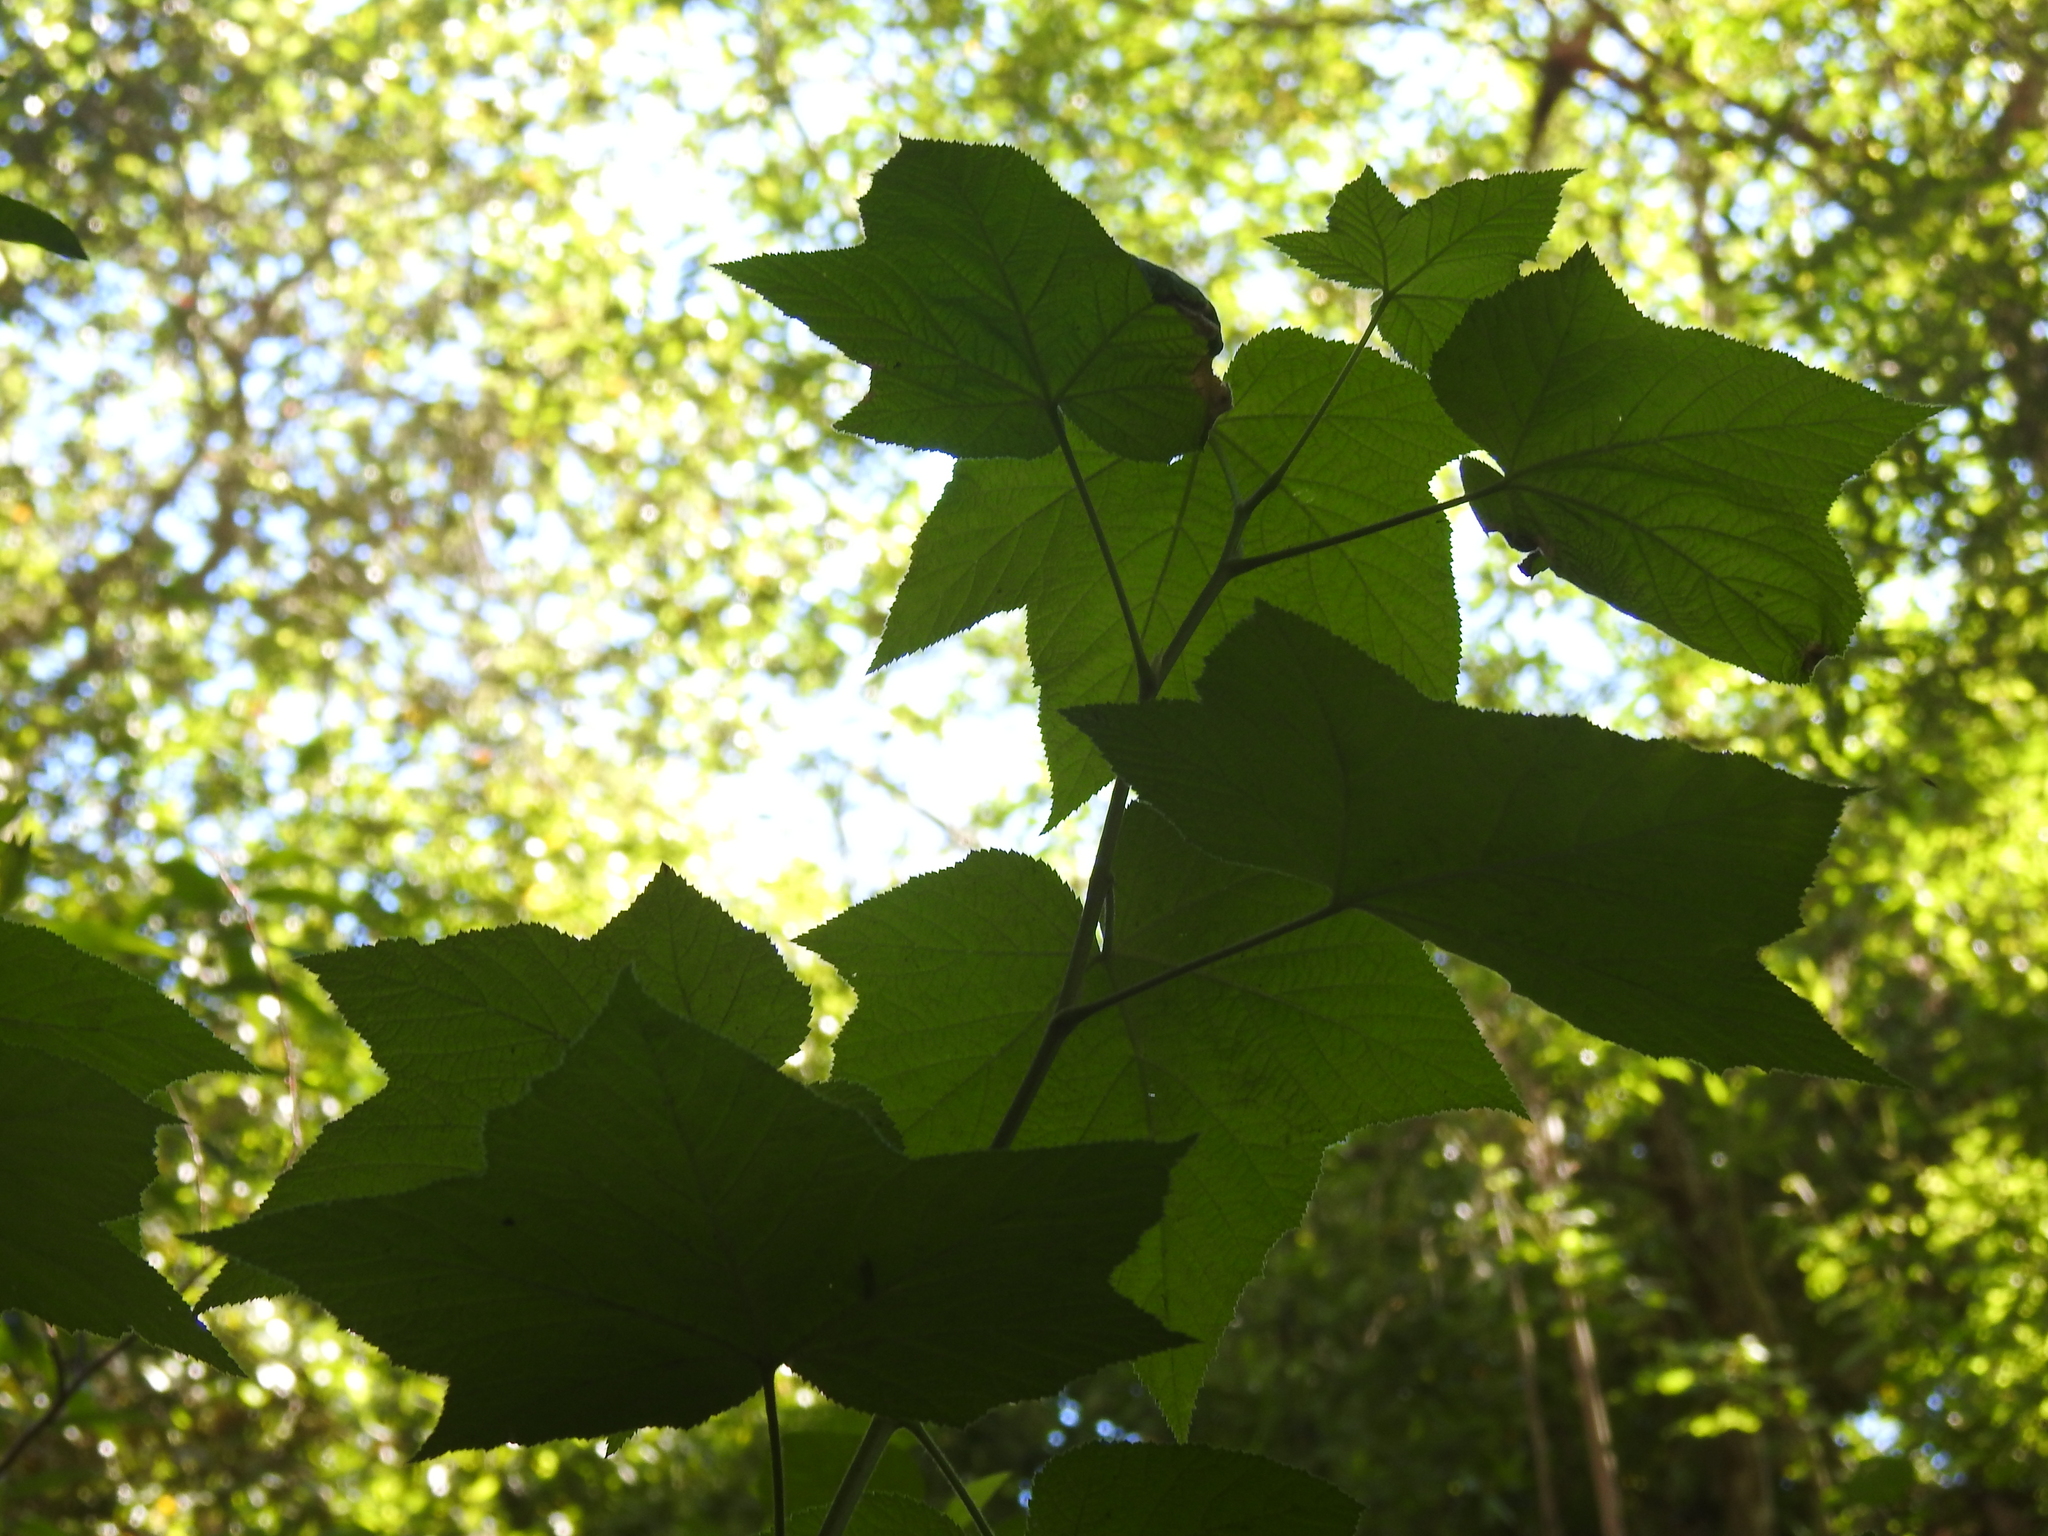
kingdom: Plantae
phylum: Tracheophyta
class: Magnoliopsida
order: Rosales
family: Rosaceae
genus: Rubus
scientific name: Rubus parviflorus
